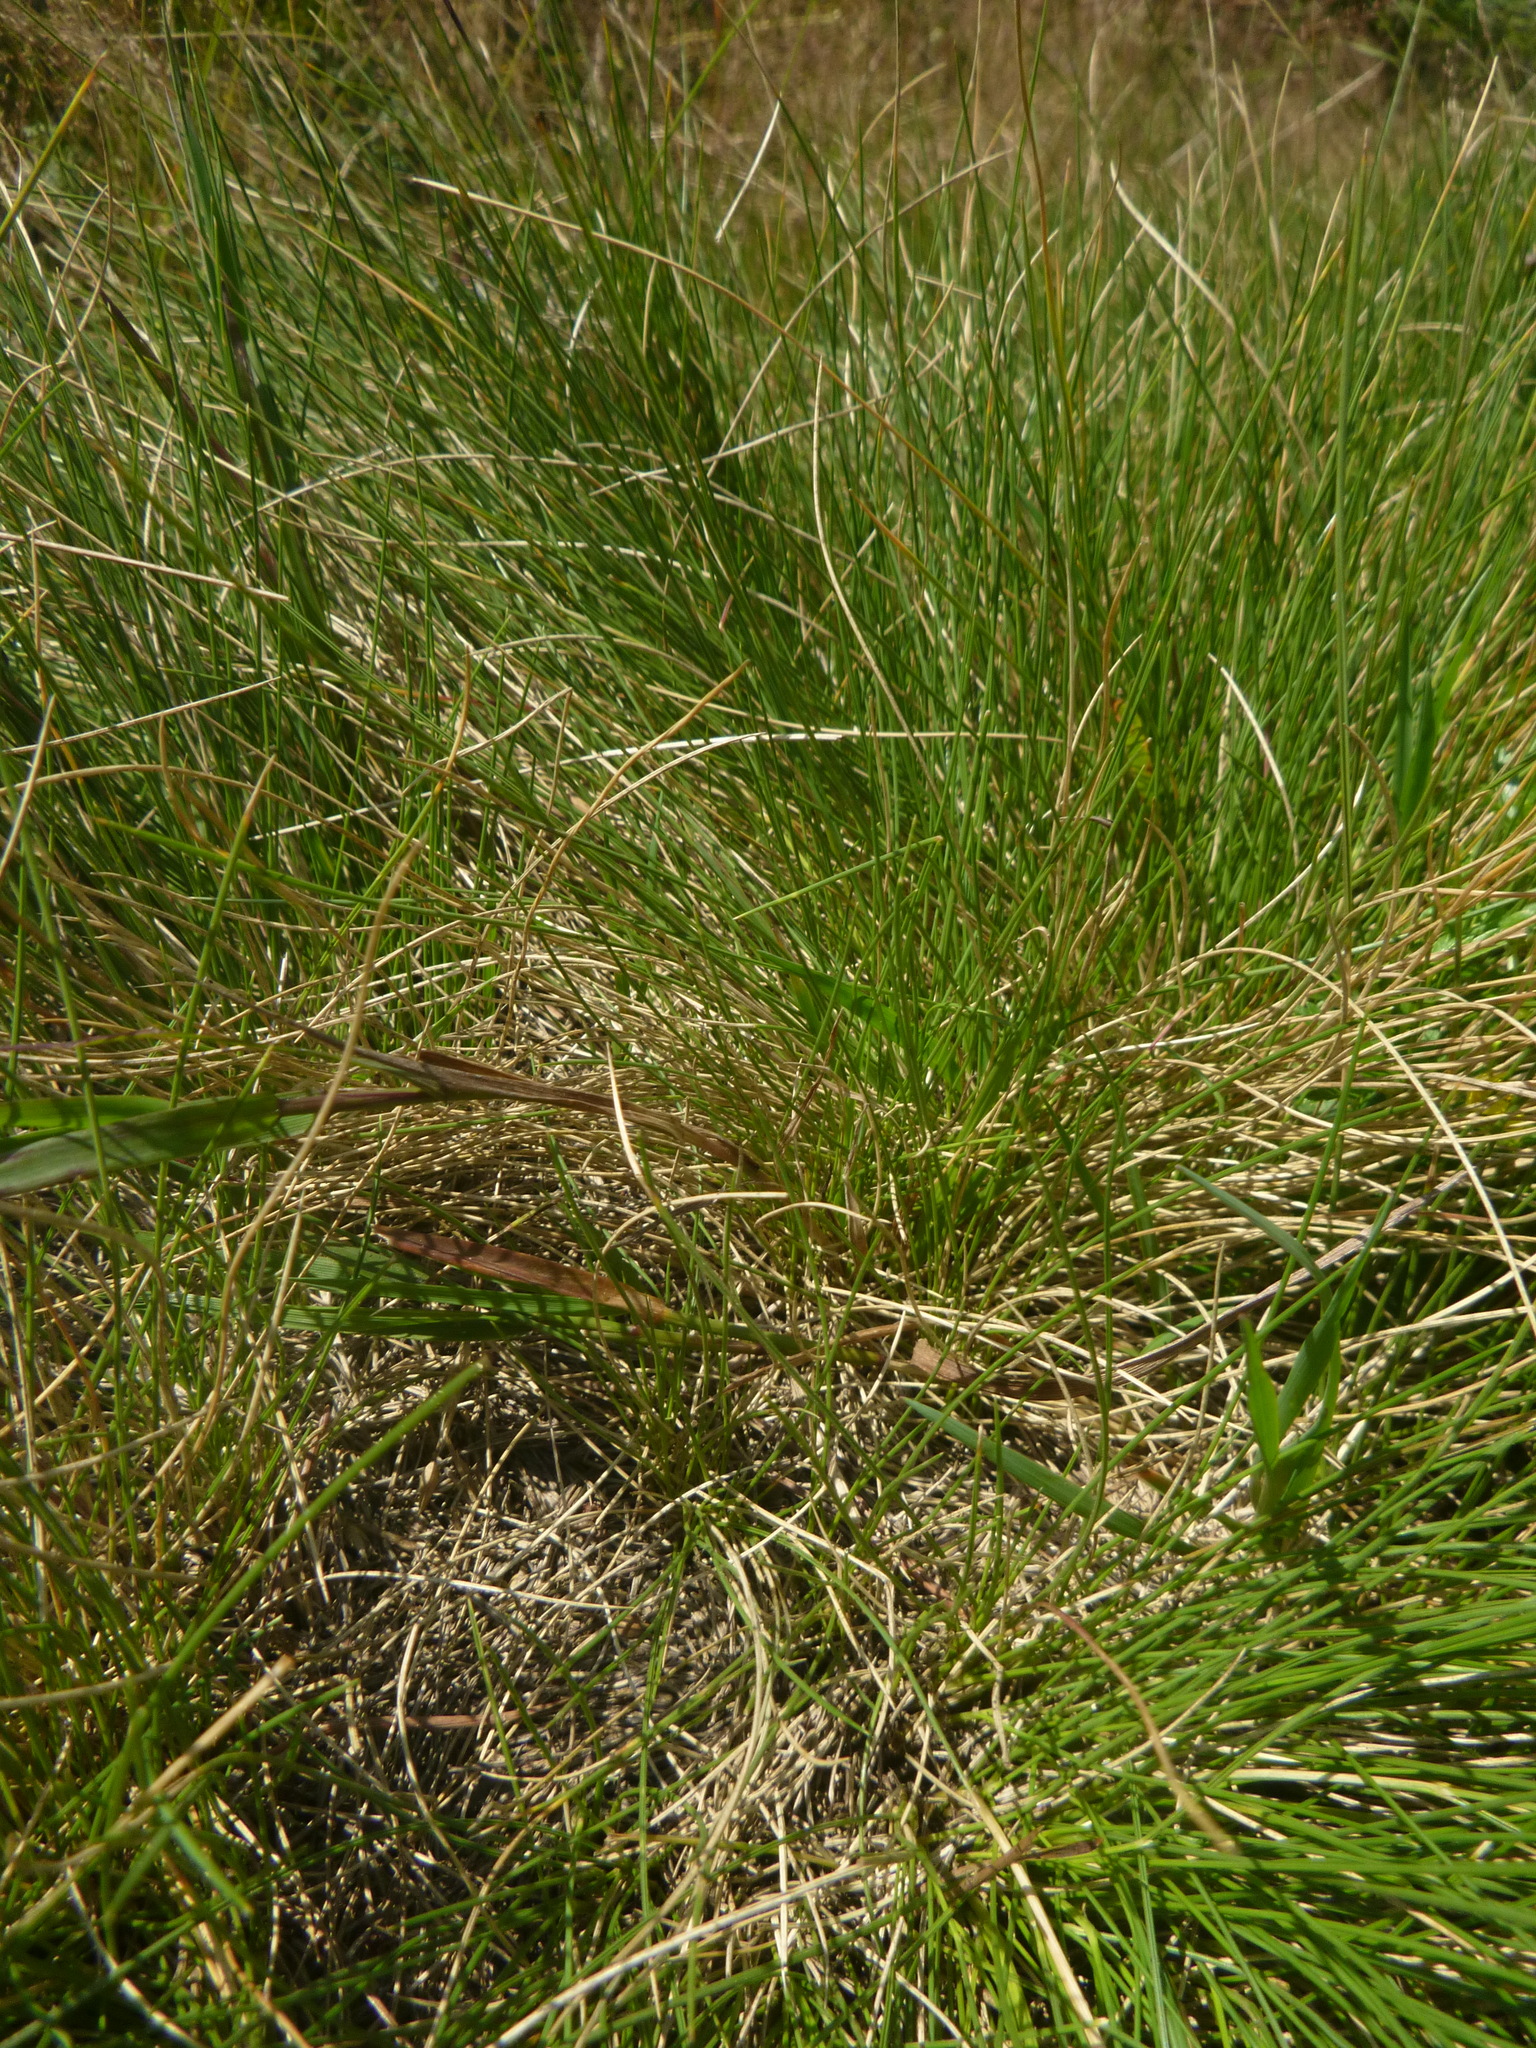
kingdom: Plantae
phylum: Tracheophyta
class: Liliopsida
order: Poales
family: Poaceae
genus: Nardus
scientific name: Nardus stricta
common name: Mat-grass
